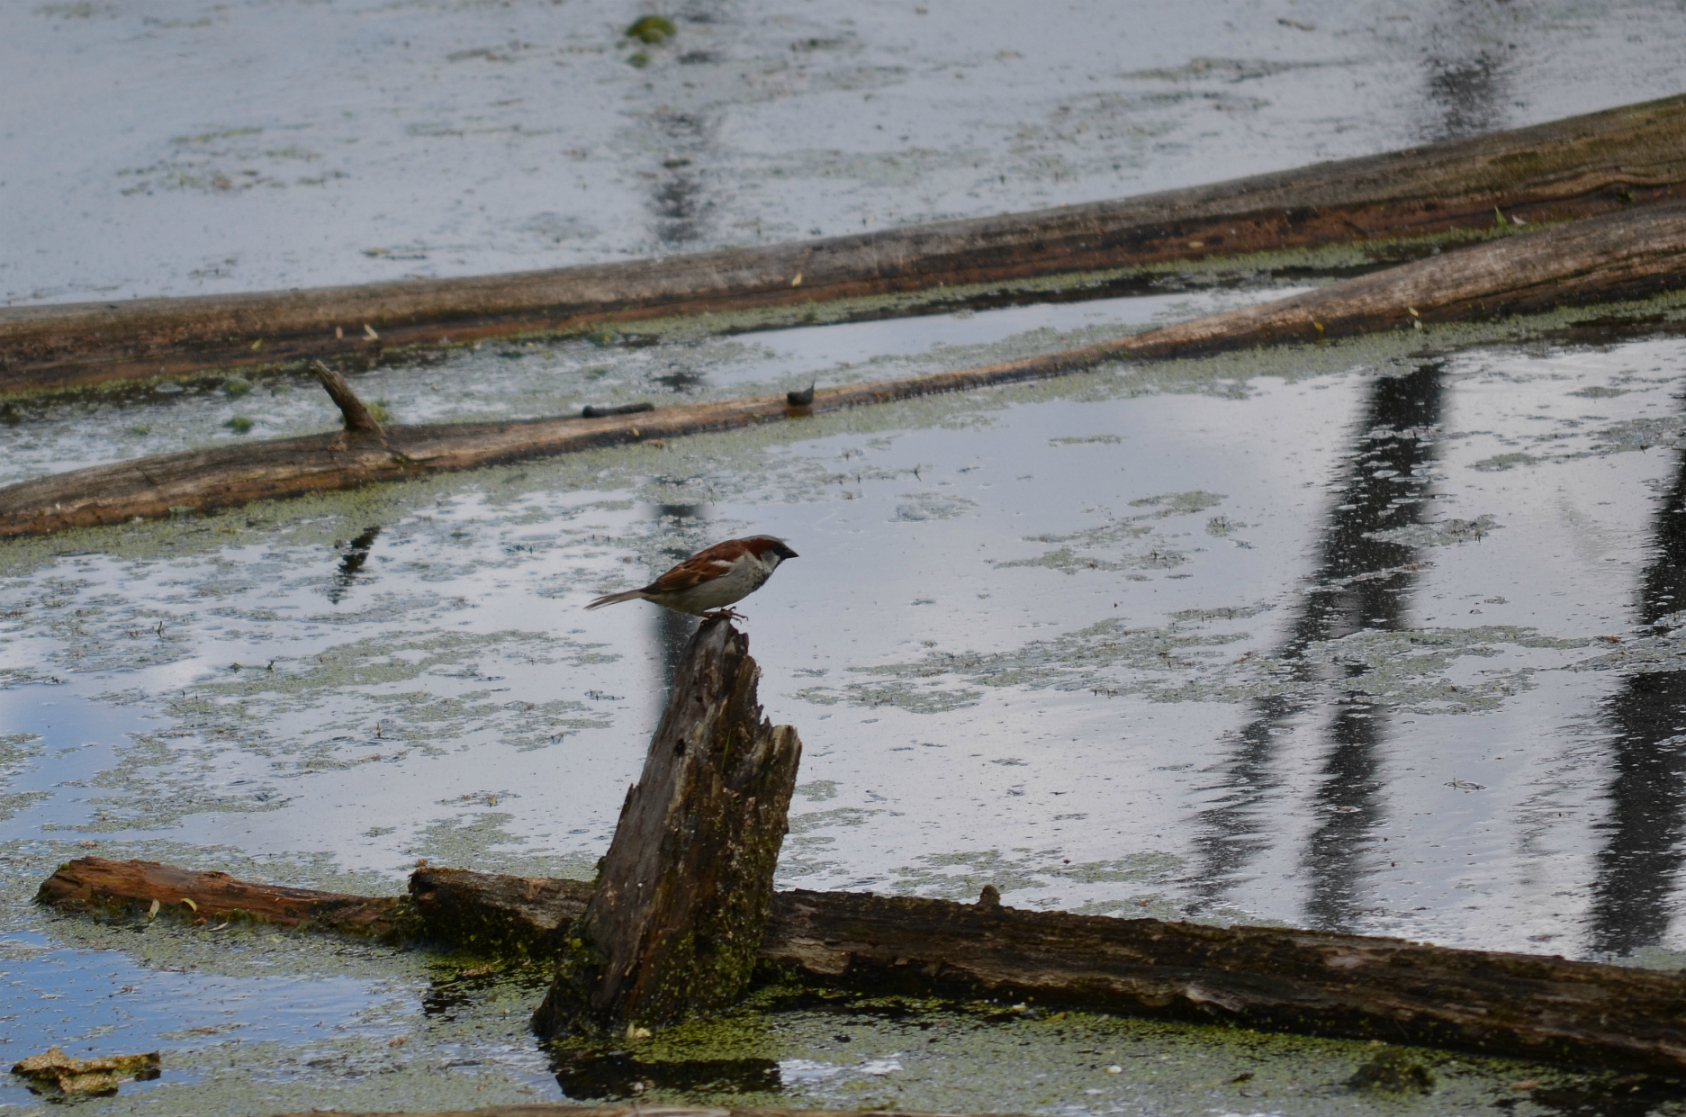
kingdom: Animalia
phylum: Chordata
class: Aves
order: Passeriformes
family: Passeridae
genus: Passer
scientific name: Passer domesticus
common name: House sparrow
